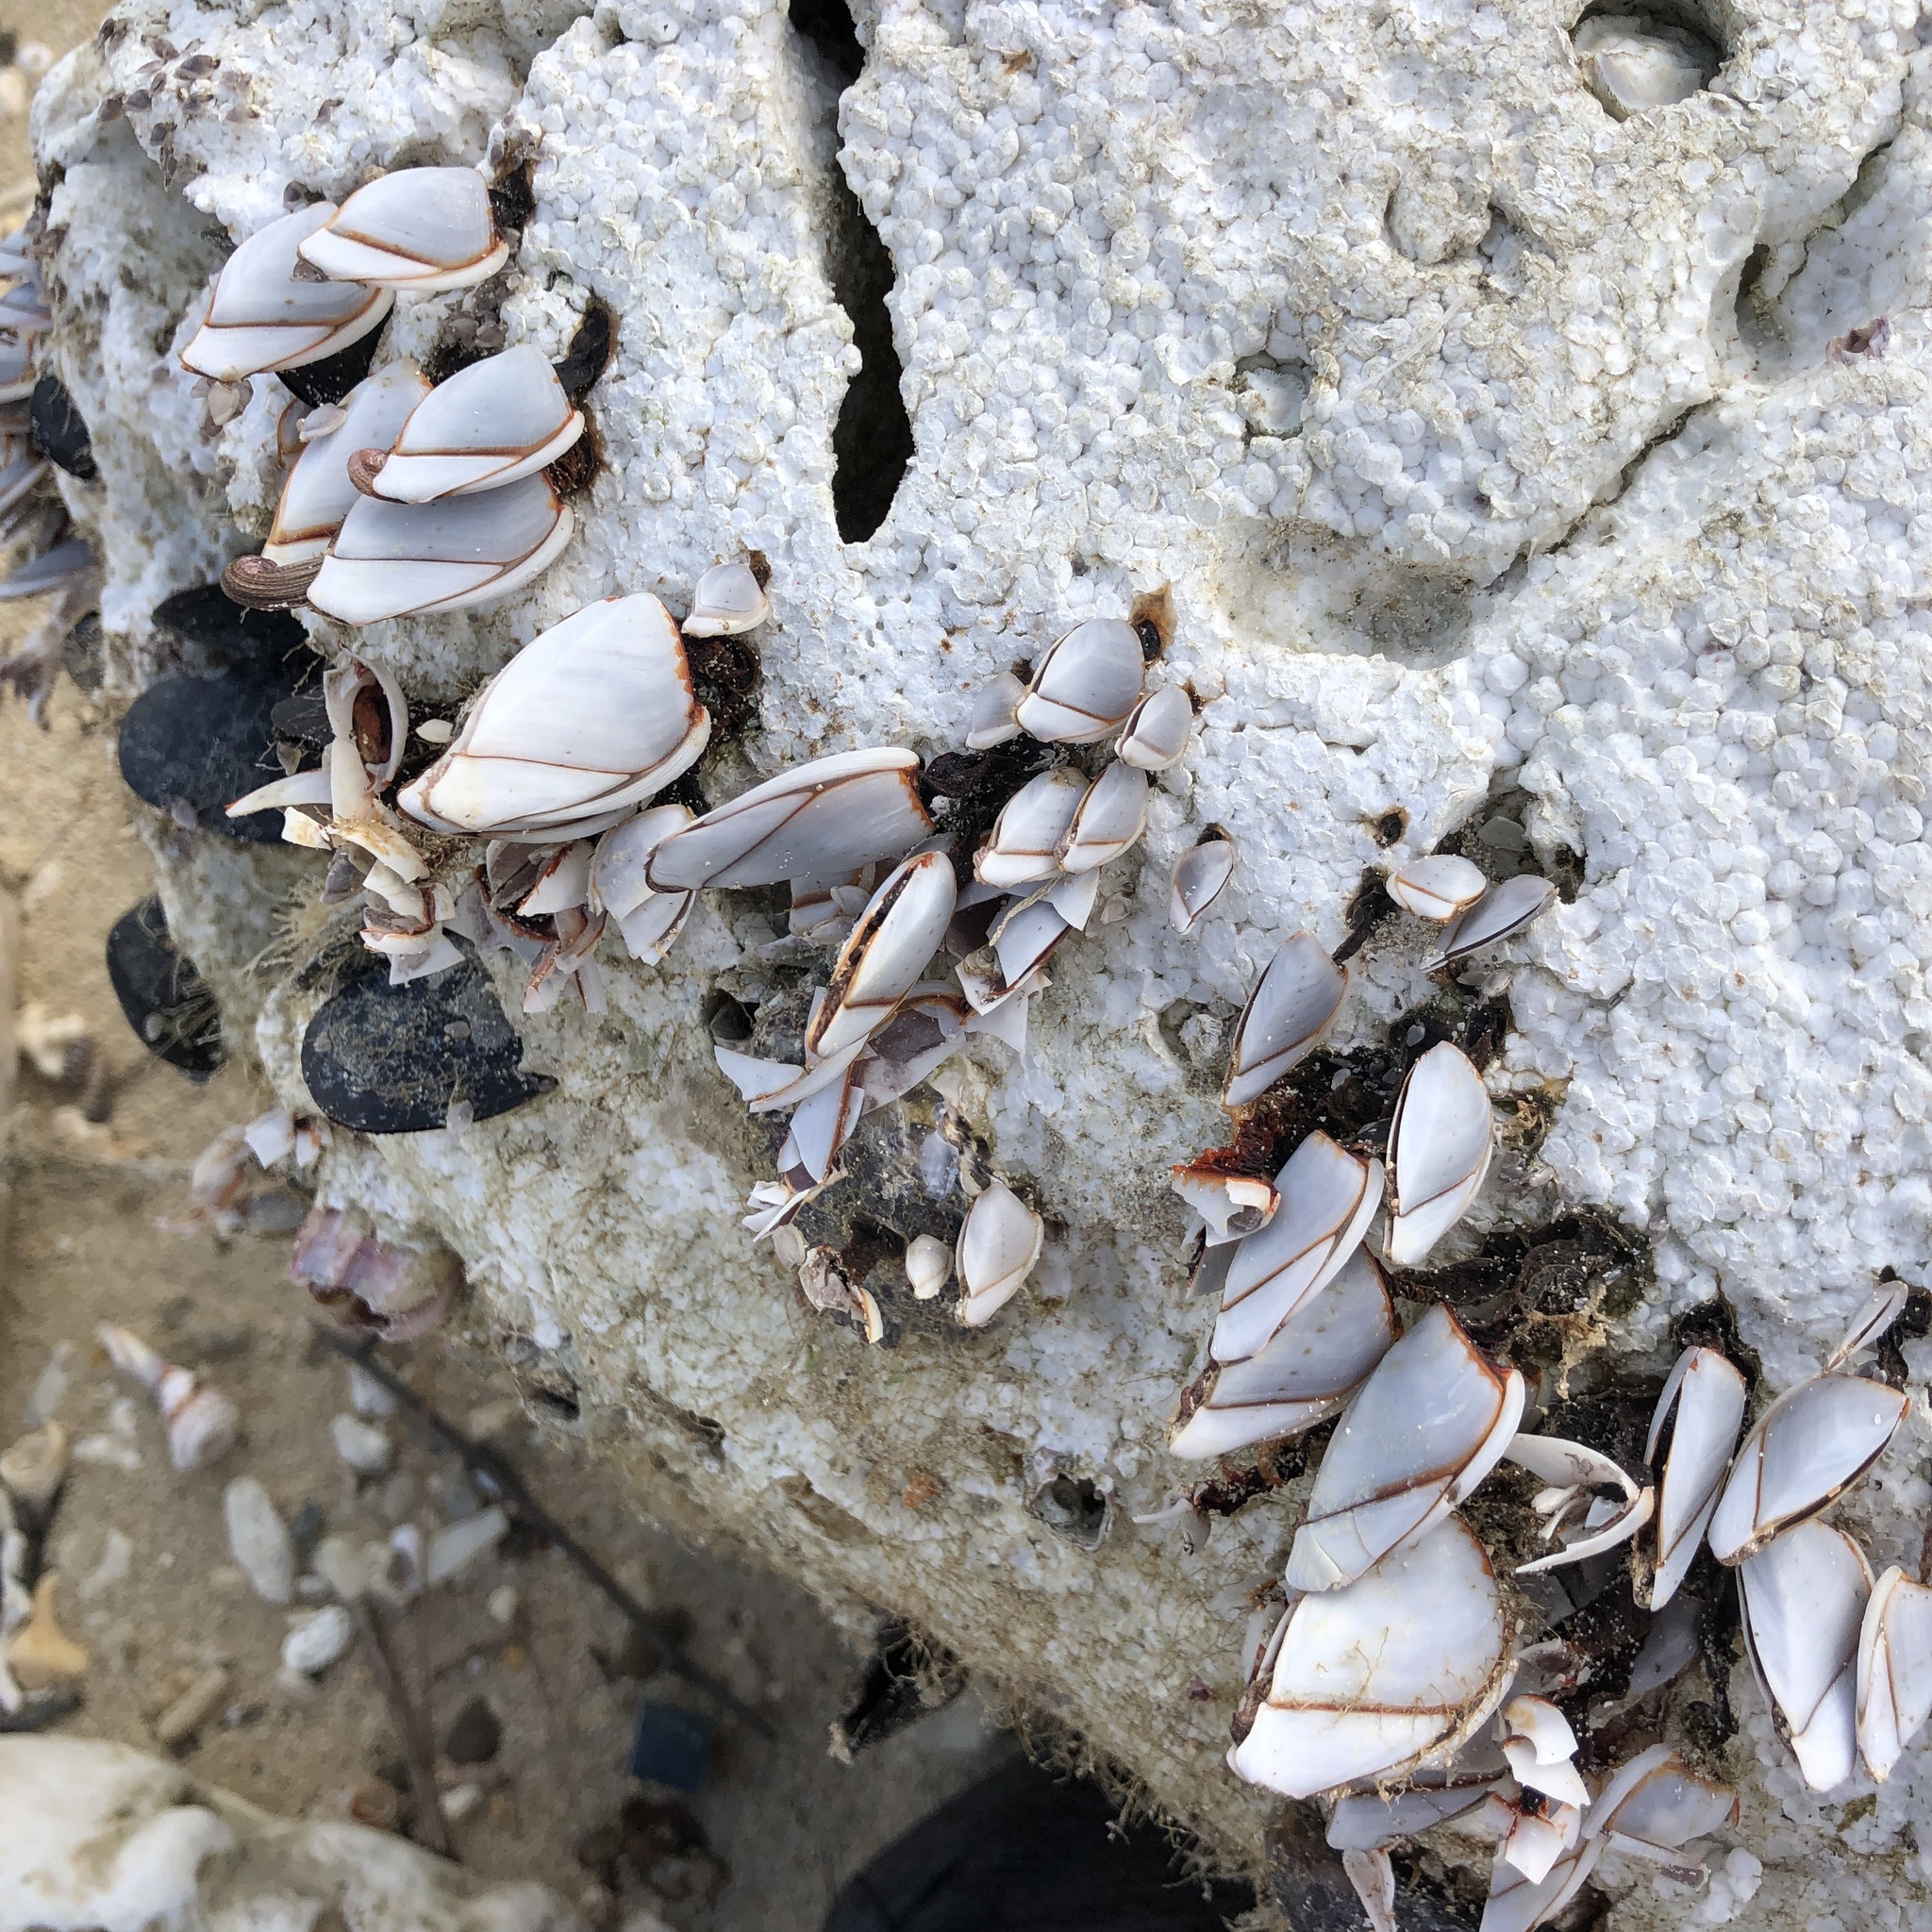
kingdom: Animalia
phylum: Arthropoda
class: Maxillopoda
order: Pedunculata
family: Lepadidae
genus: Lepas
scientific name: Lepas indica
